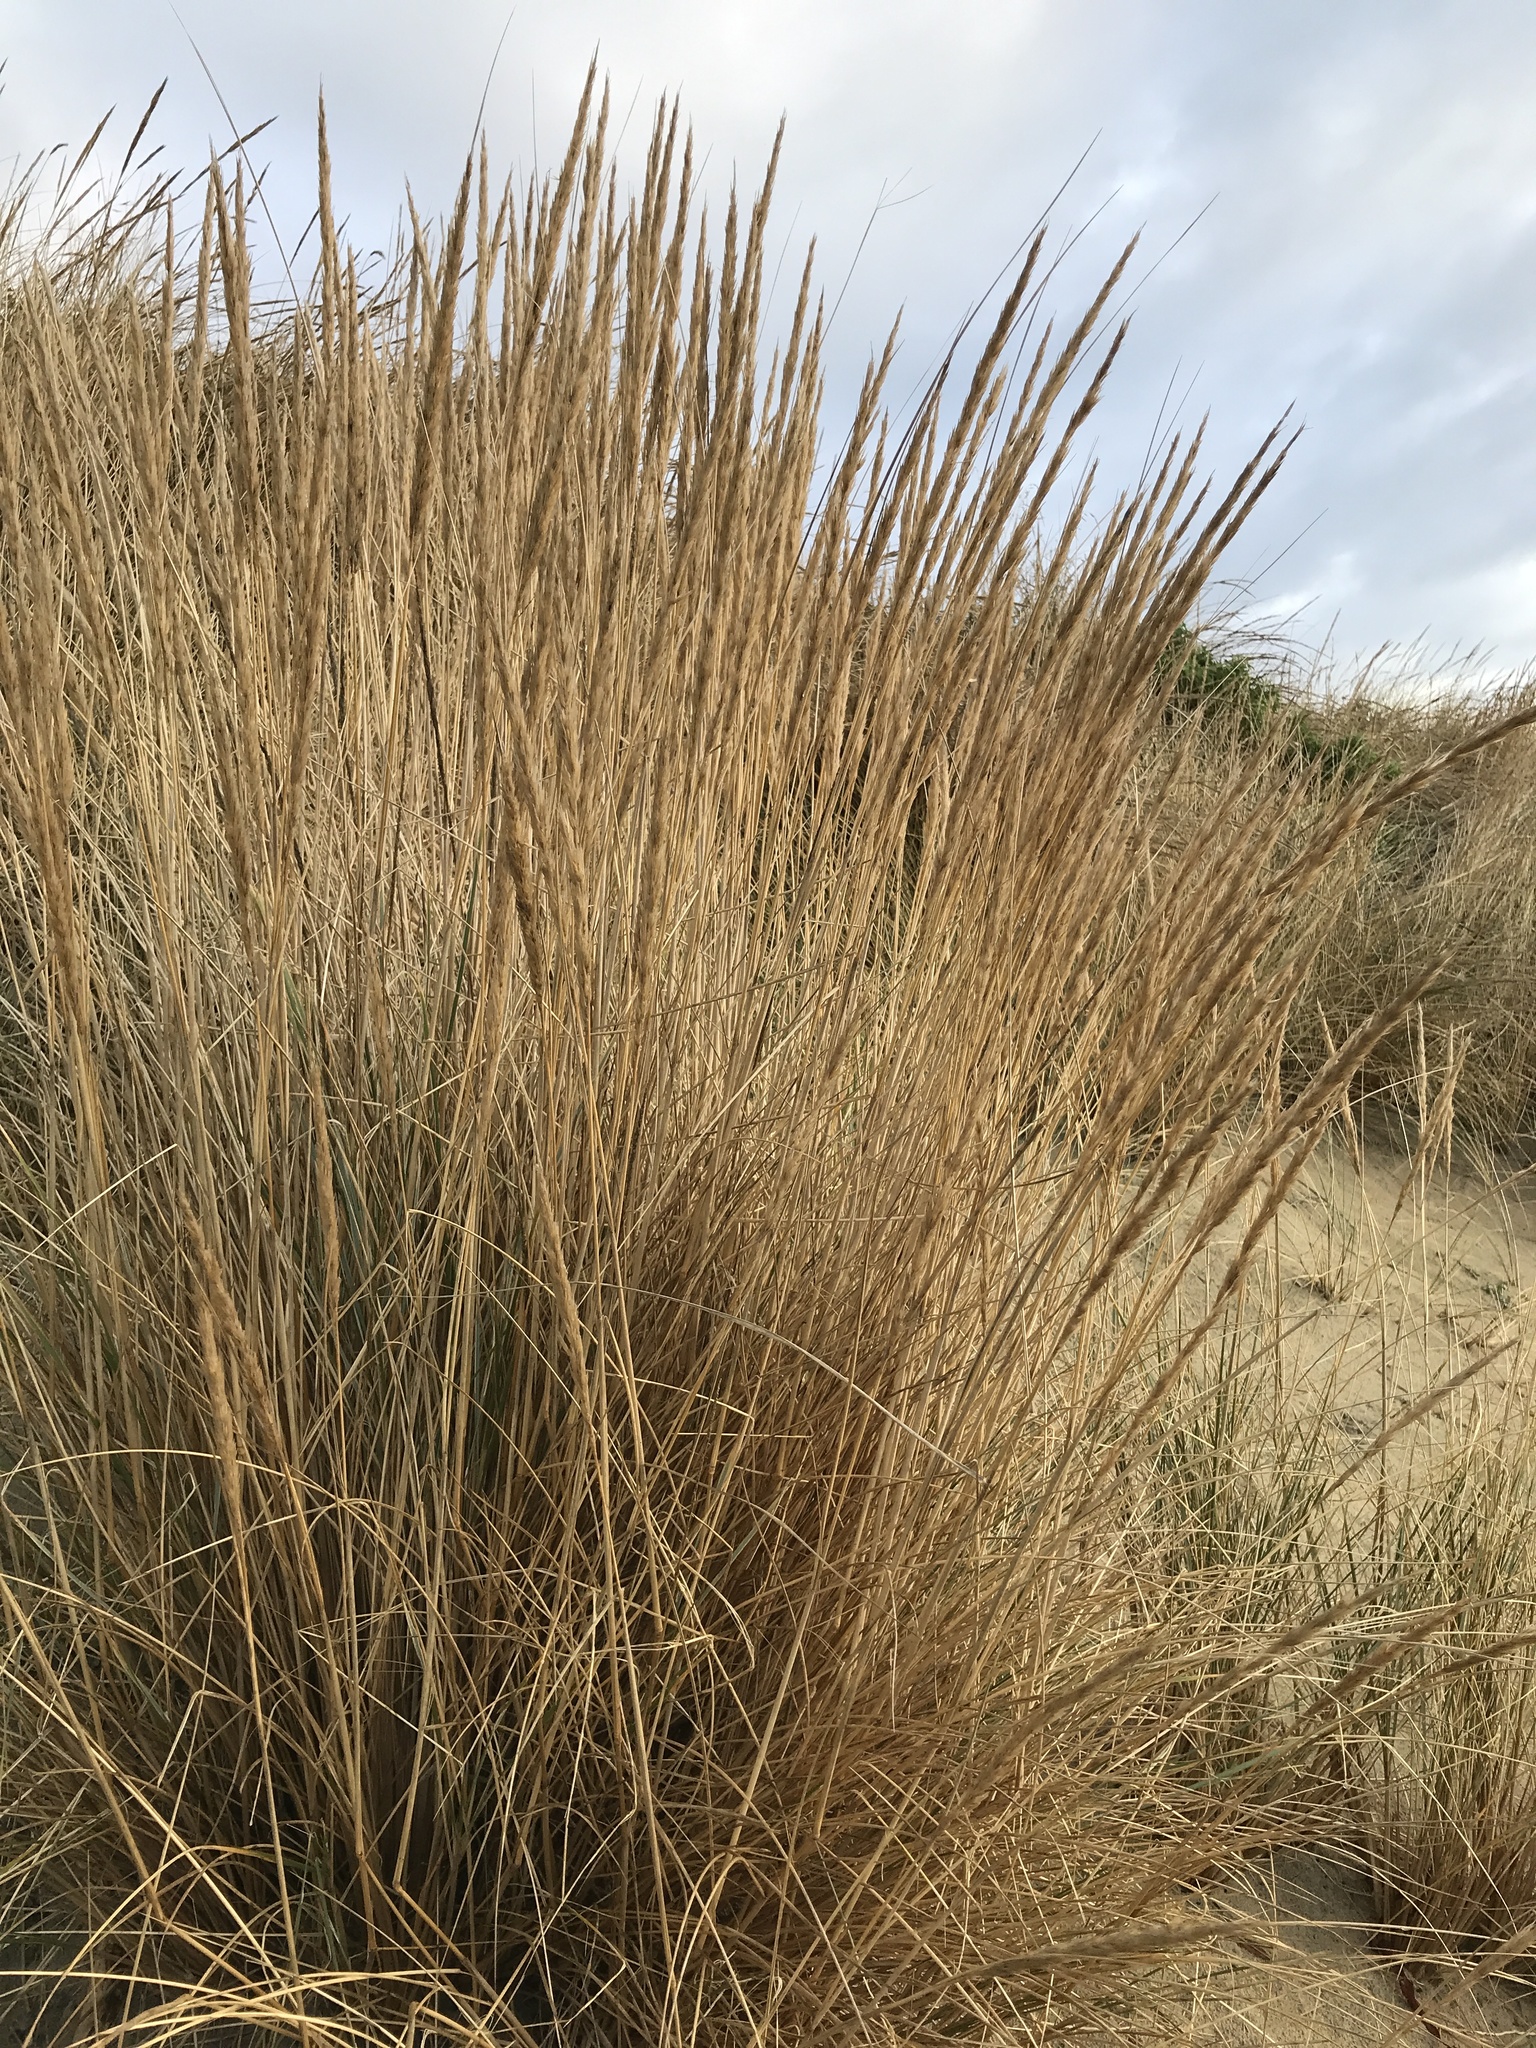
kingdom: Plantae
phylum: Tracheophyta
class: Liliopsida
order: Poales
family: Poaceae
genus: Calamagrostis
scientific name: Calamagrostis arenaria
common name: European beachgrass
